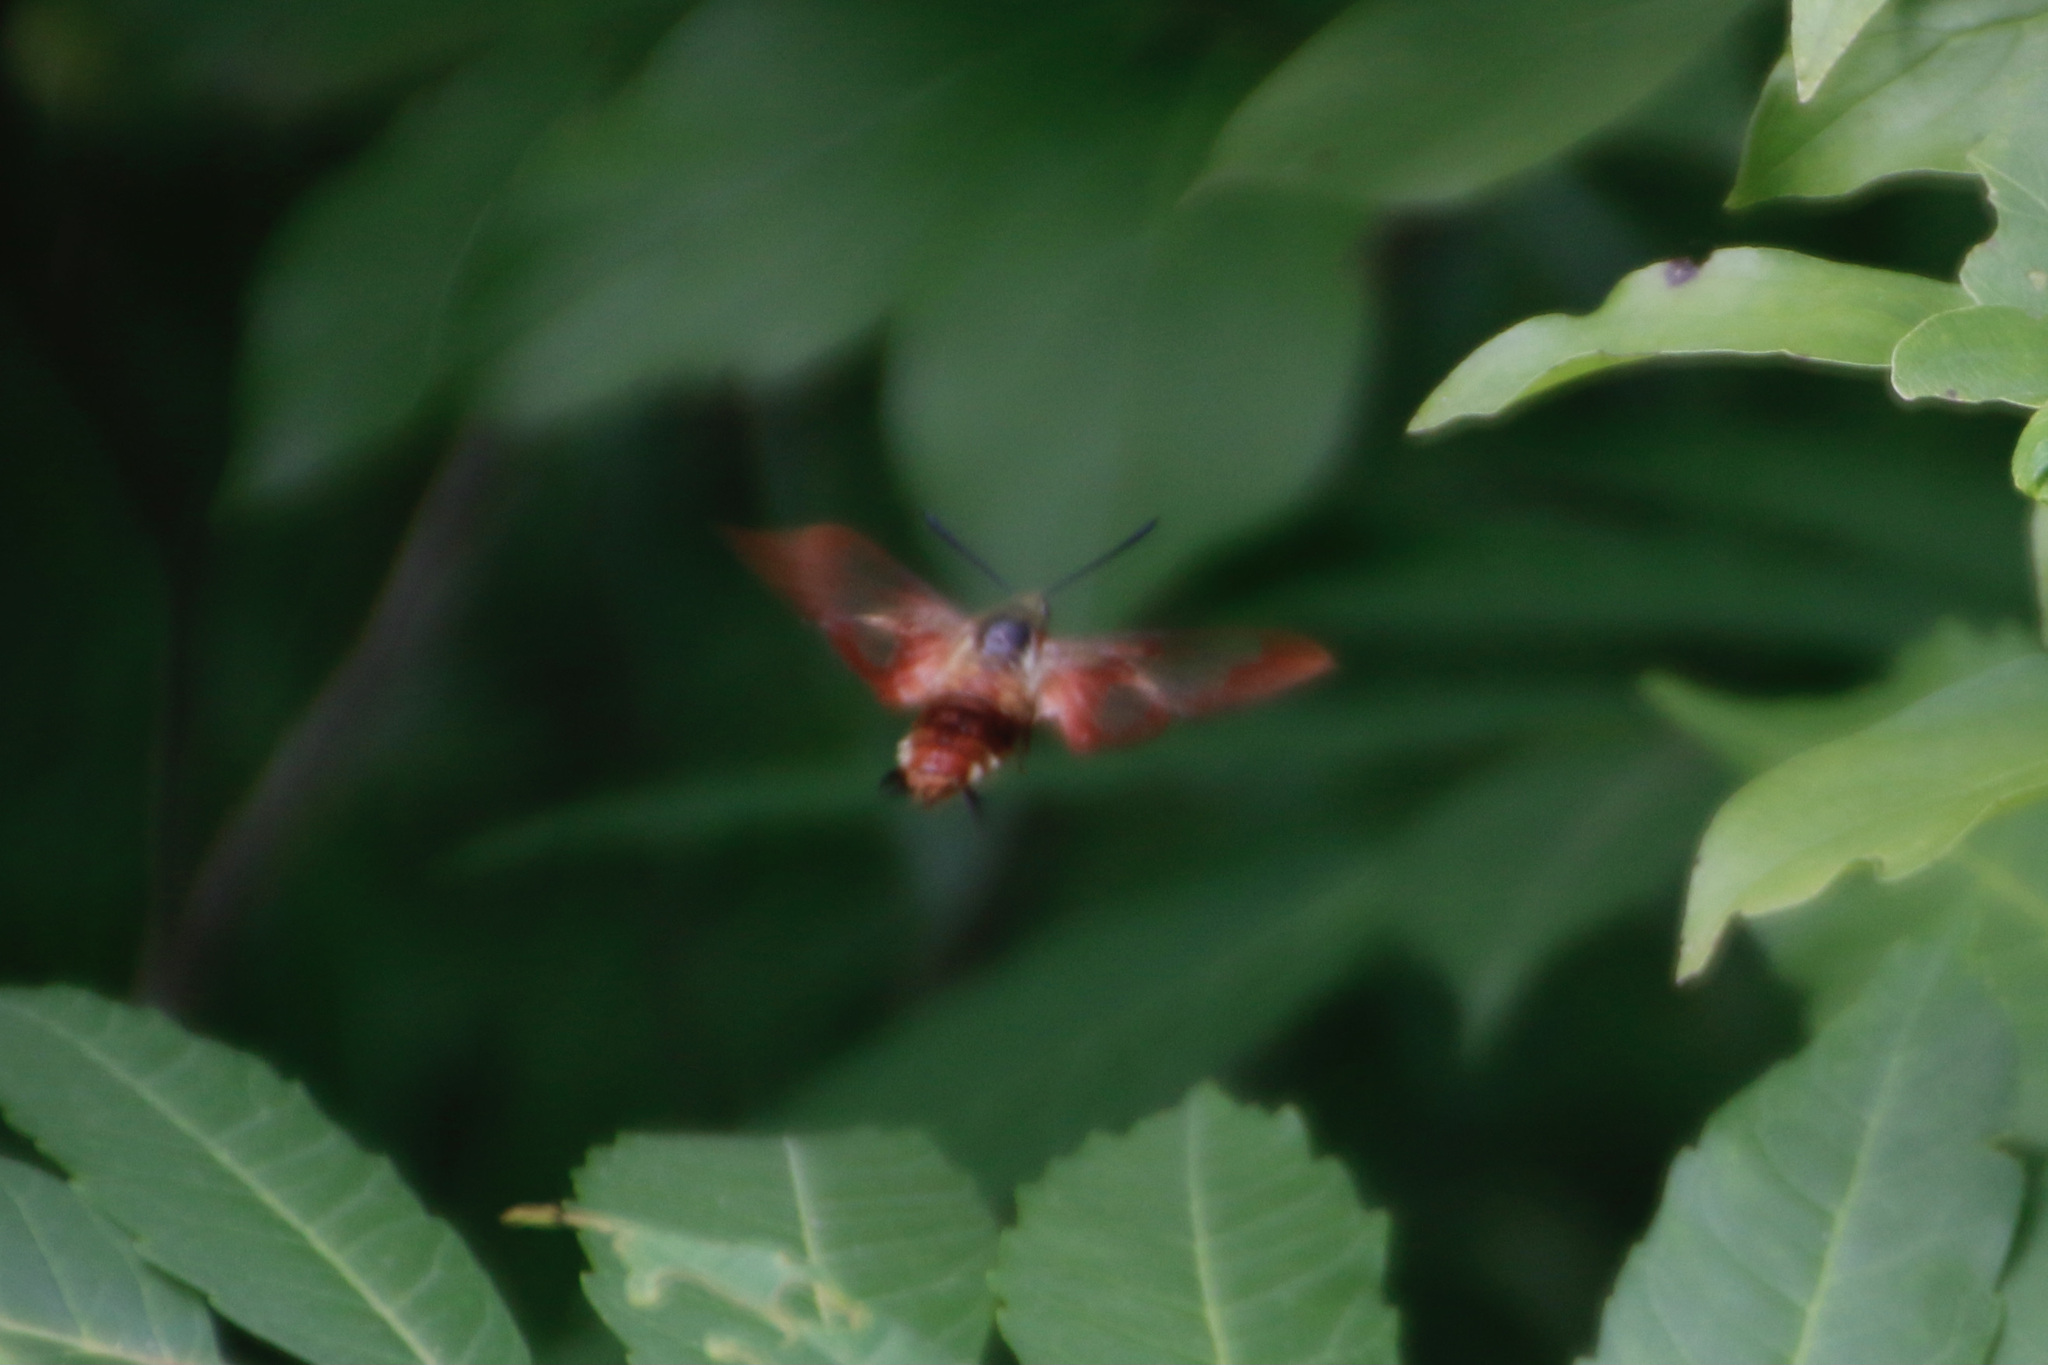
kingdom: Animalia
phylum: Arthropoda
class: Insecta
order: Lepidoptera
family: Sphingidae
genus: Hemaris
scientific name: Hemaris thysbe
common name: Common clear-wing
